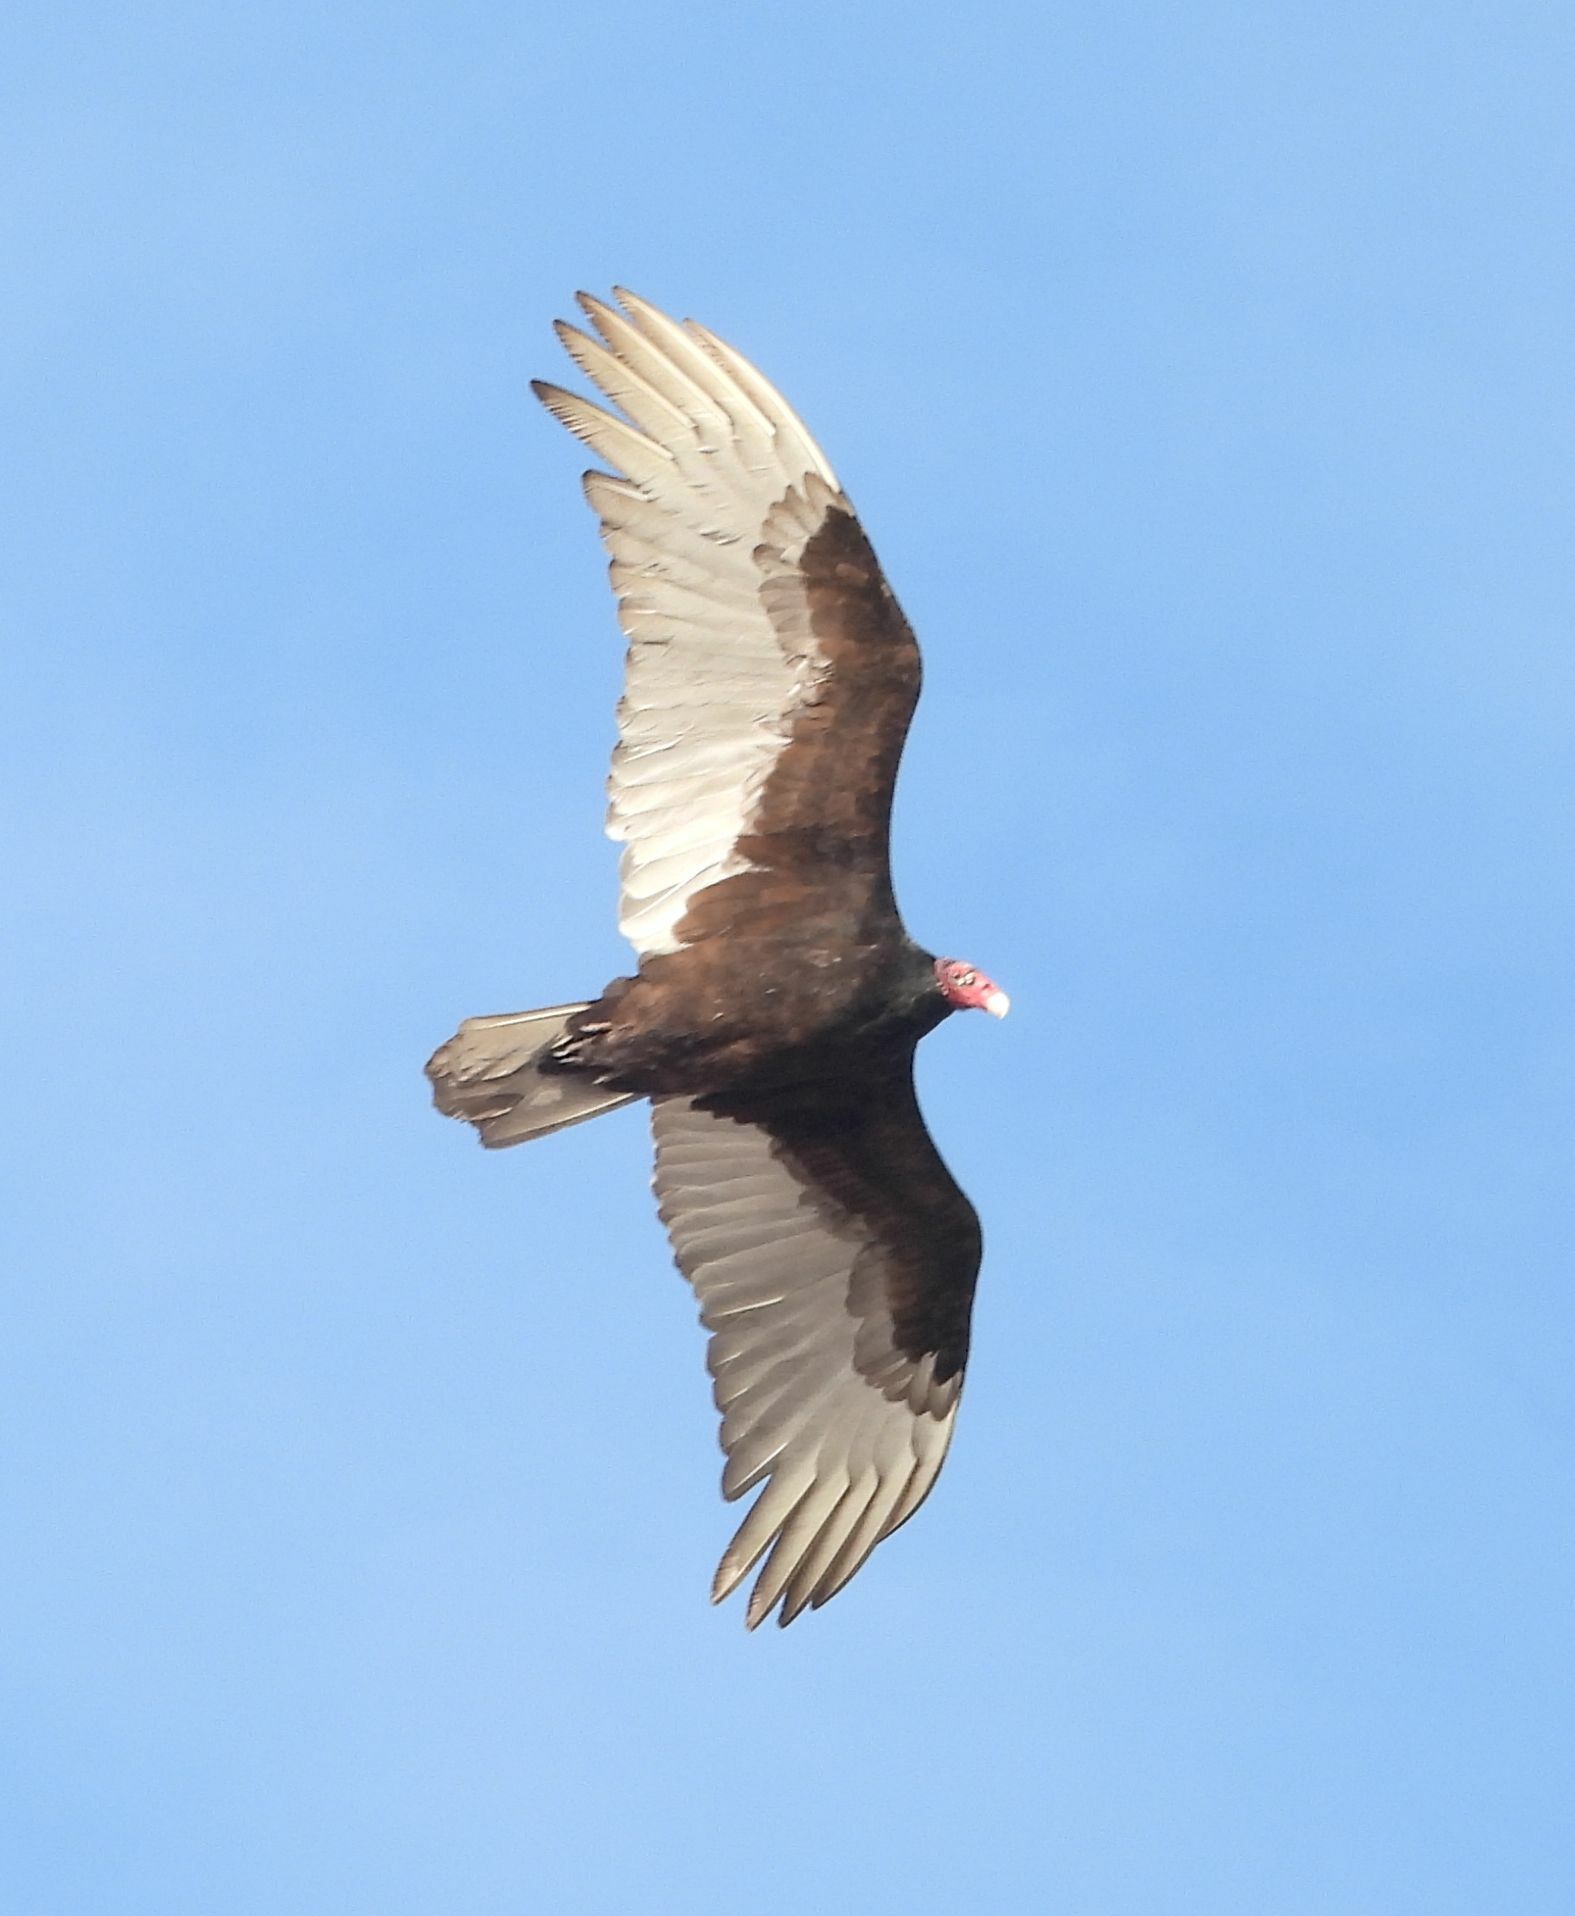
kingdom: Animalia
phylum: Chordata
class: Aves
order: Accipitriformes
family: Cathartidae
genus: Cathartes
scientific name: Cathartes aura
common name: Turkey vulture
